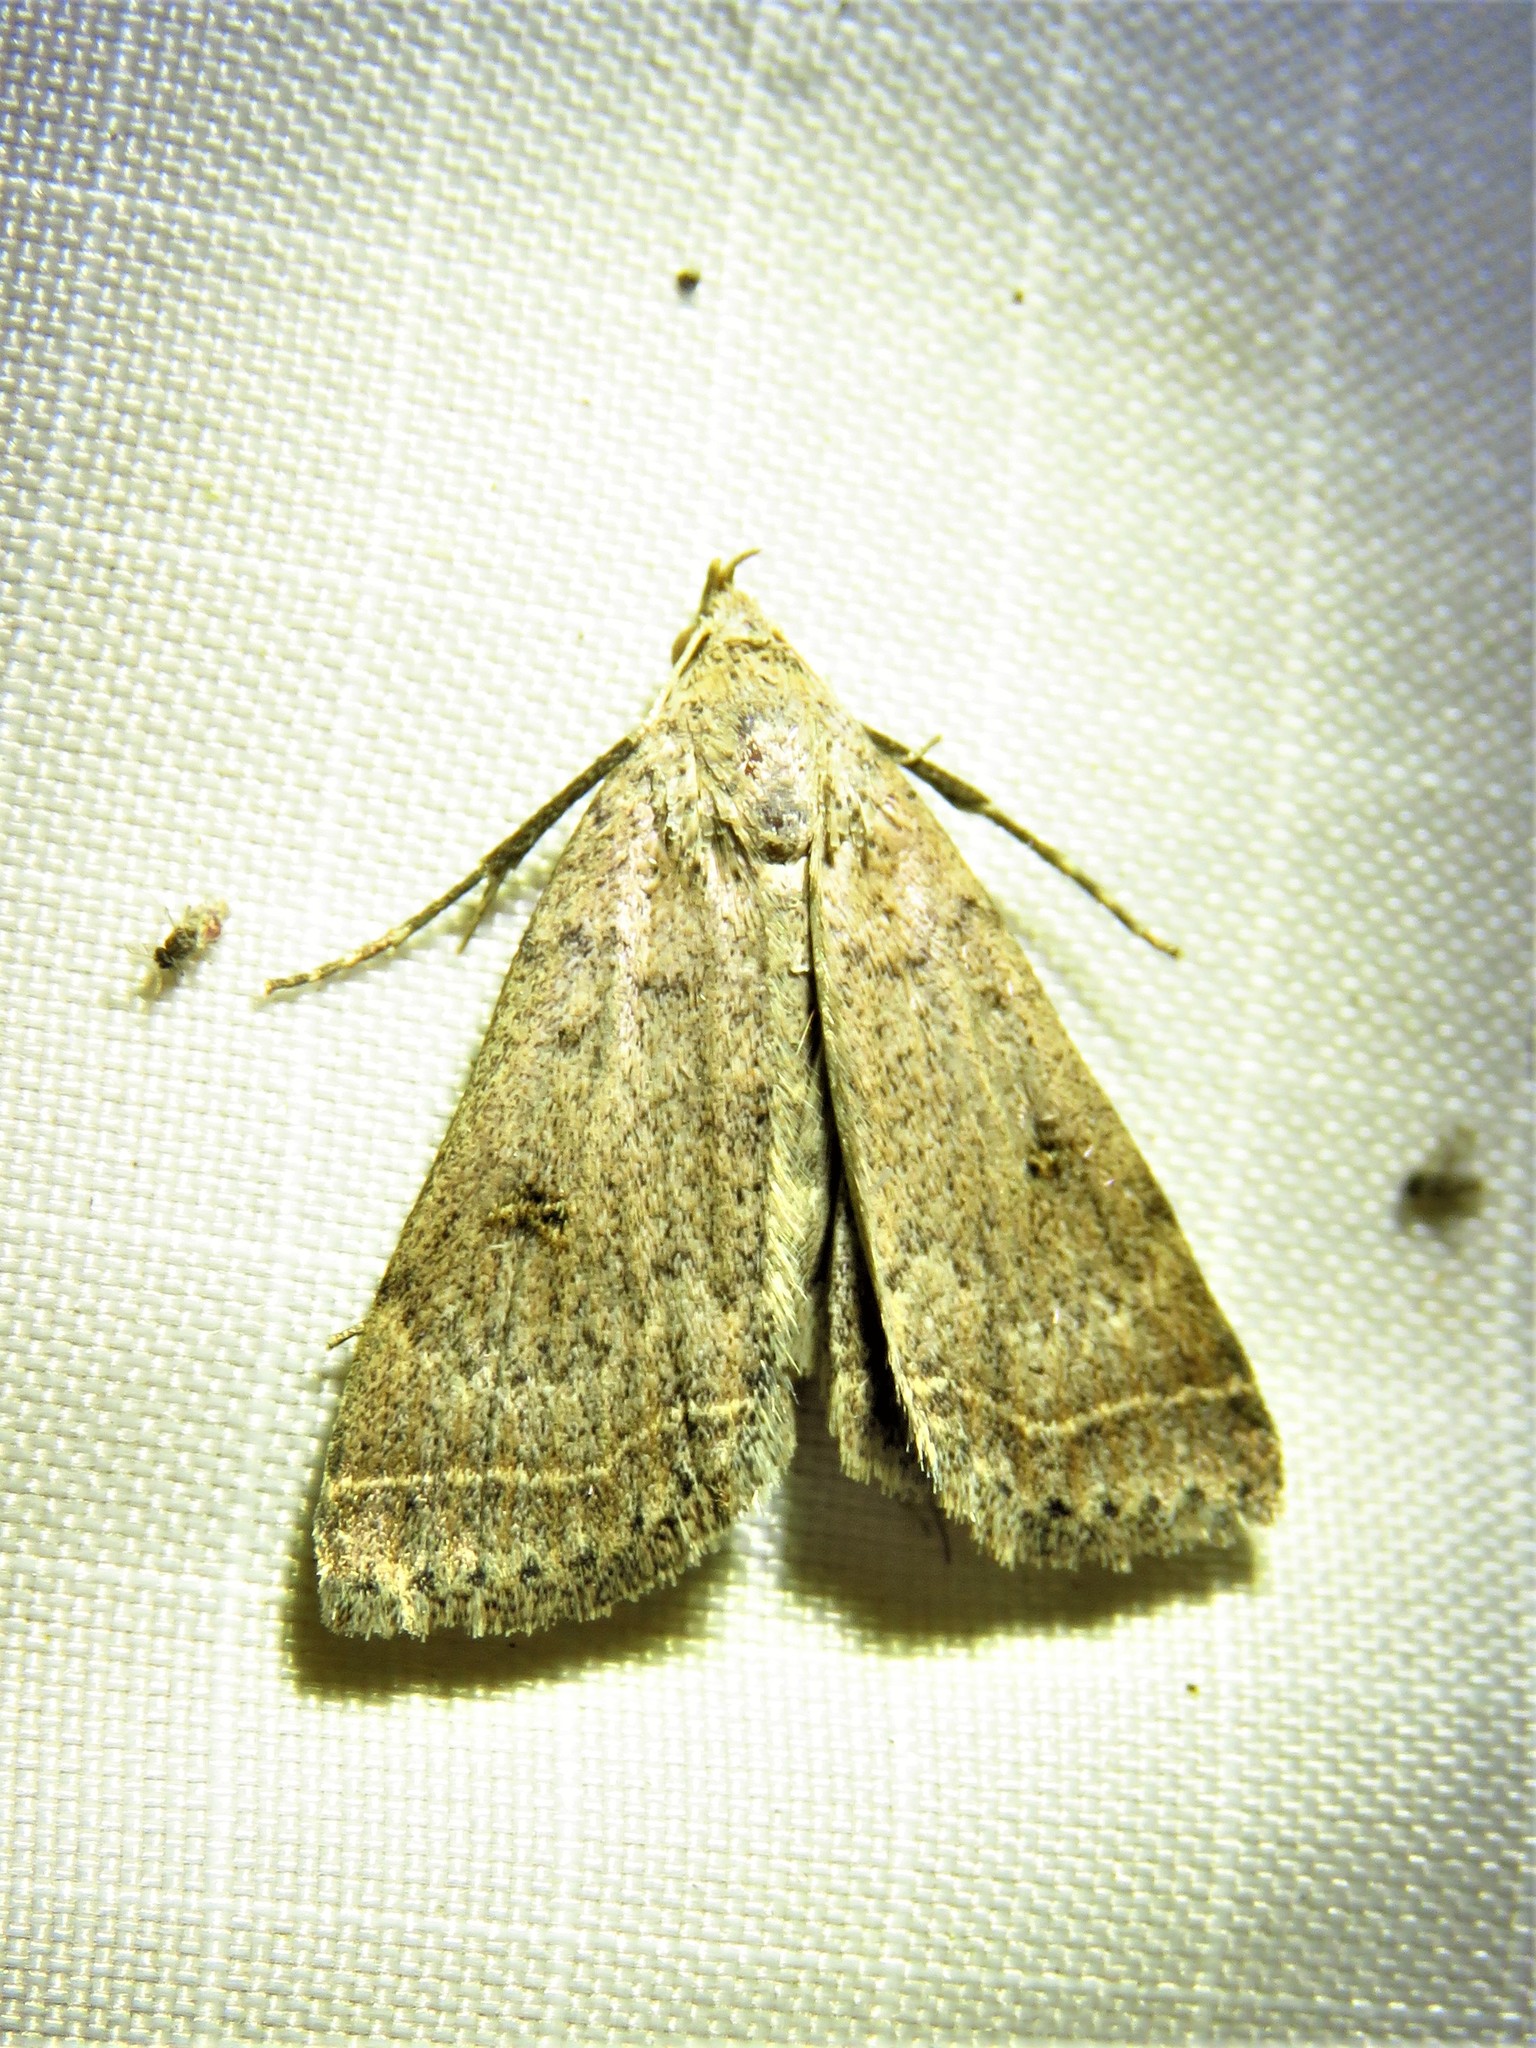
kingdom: Animalia
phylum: Arthropoda
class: Insecta
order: Lepidoptera
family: Erebidae
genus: Bleptina
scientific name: Bleptina caradrinalis
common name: Bent-winged owlet
